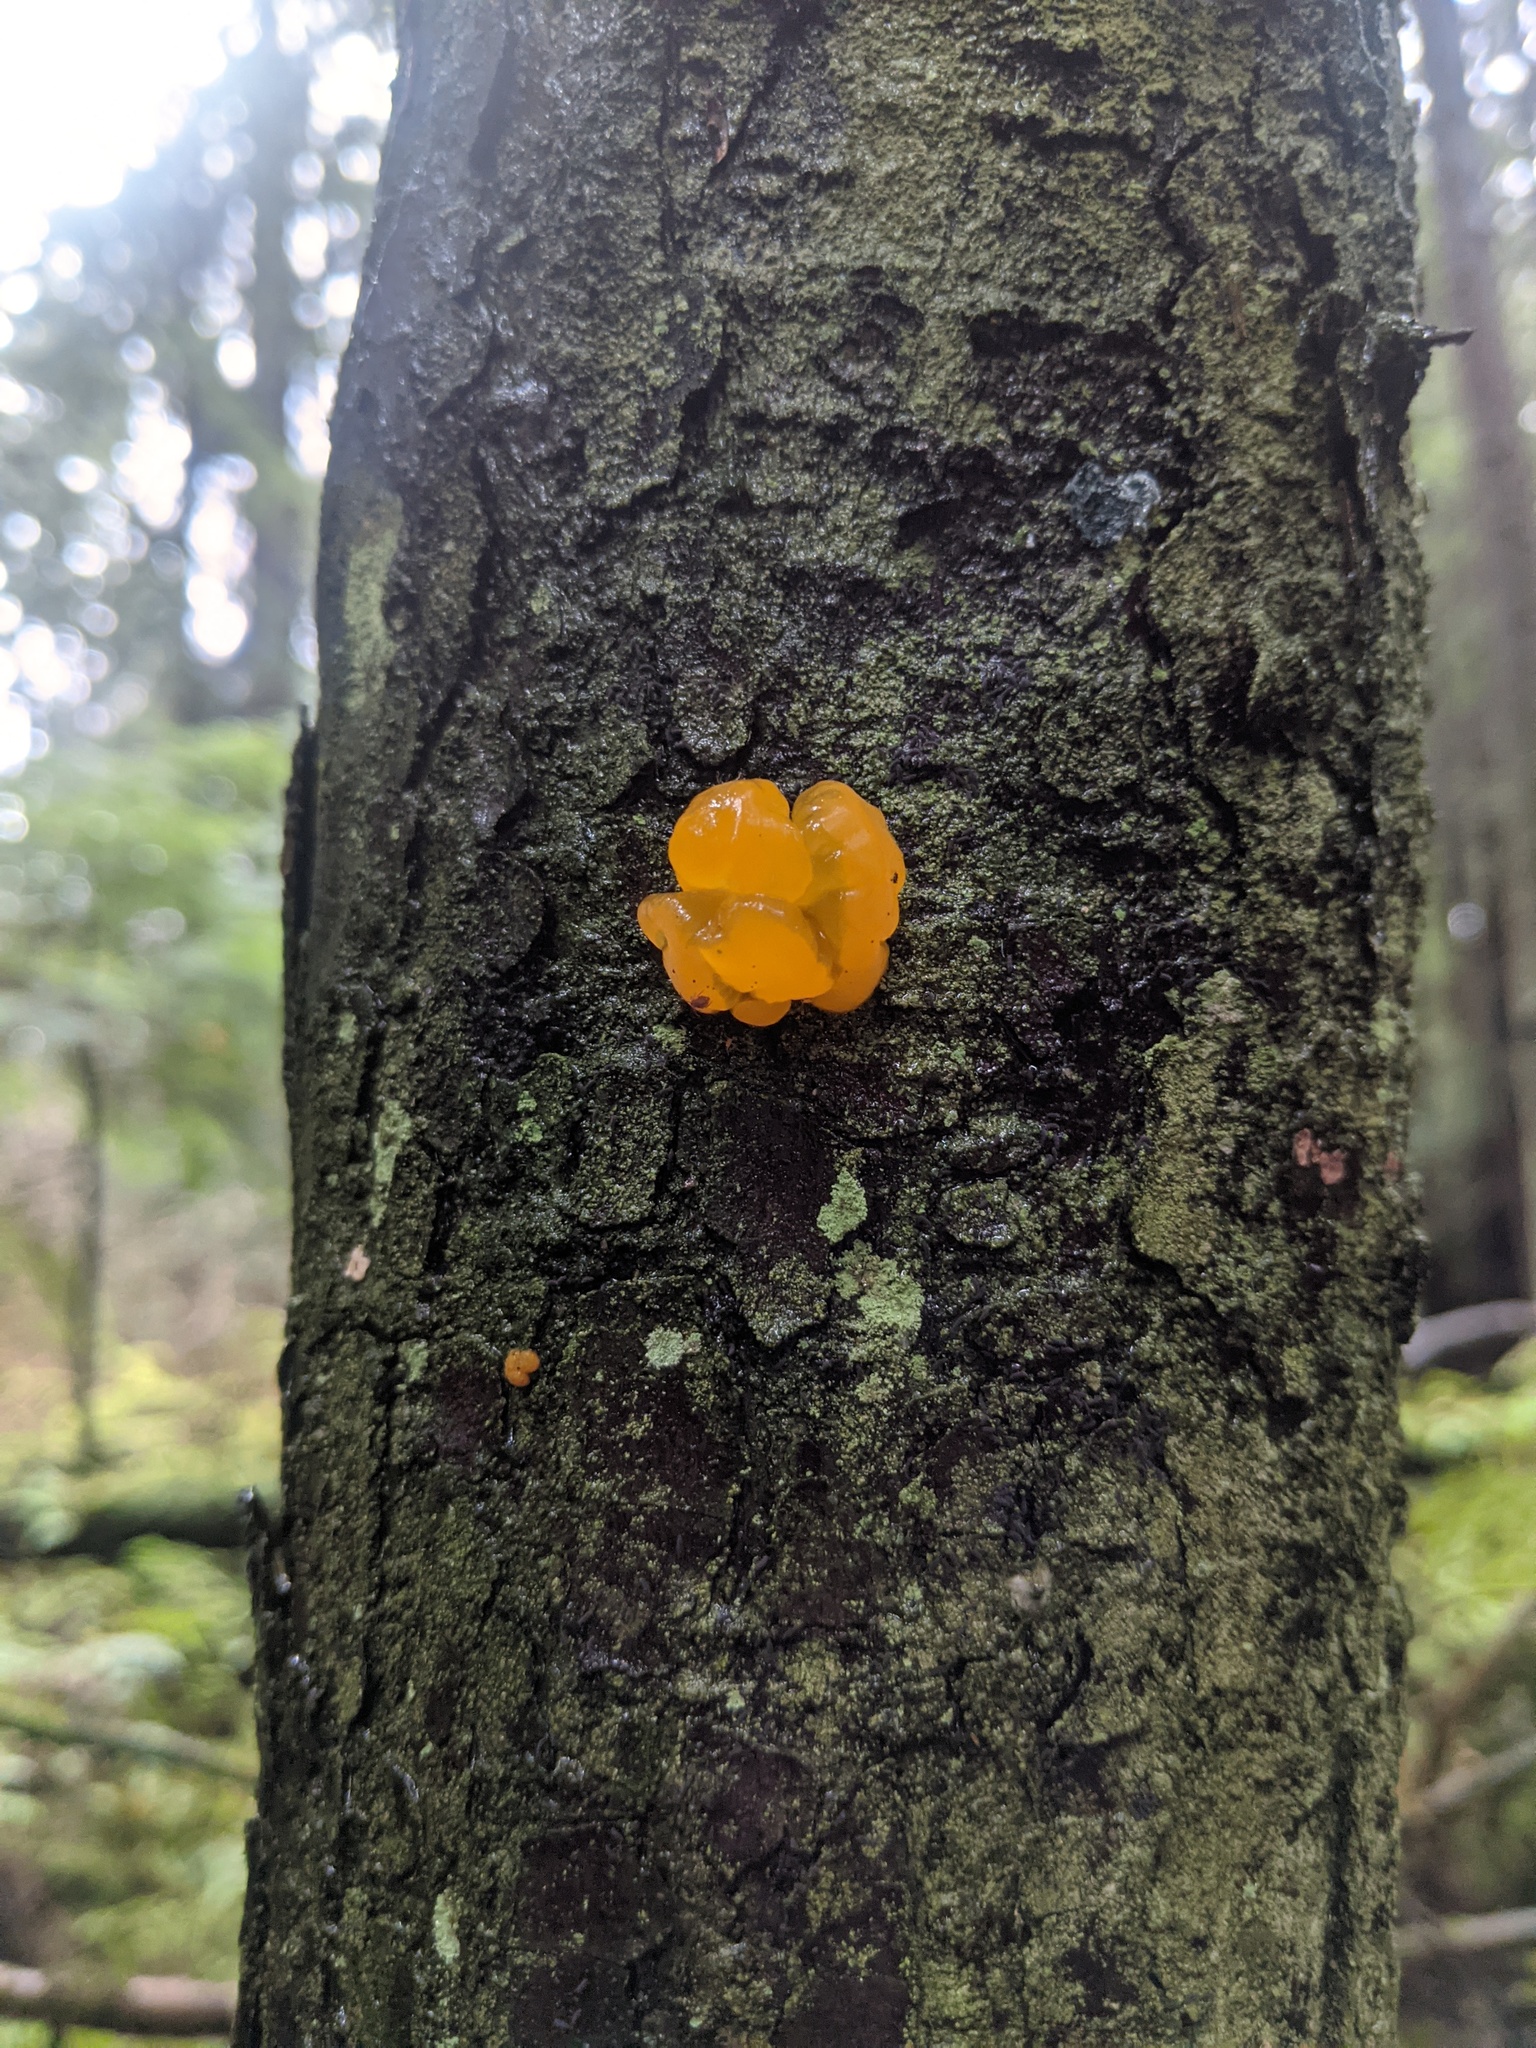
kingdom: Fungi
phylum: Basidiomycota
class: Dacrymycetes
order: Dacrymycetales
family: Dacrymycetaceae
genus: Dacrymyces
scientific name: Dacrymyces chrysospermus
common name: Orange jelly spot
